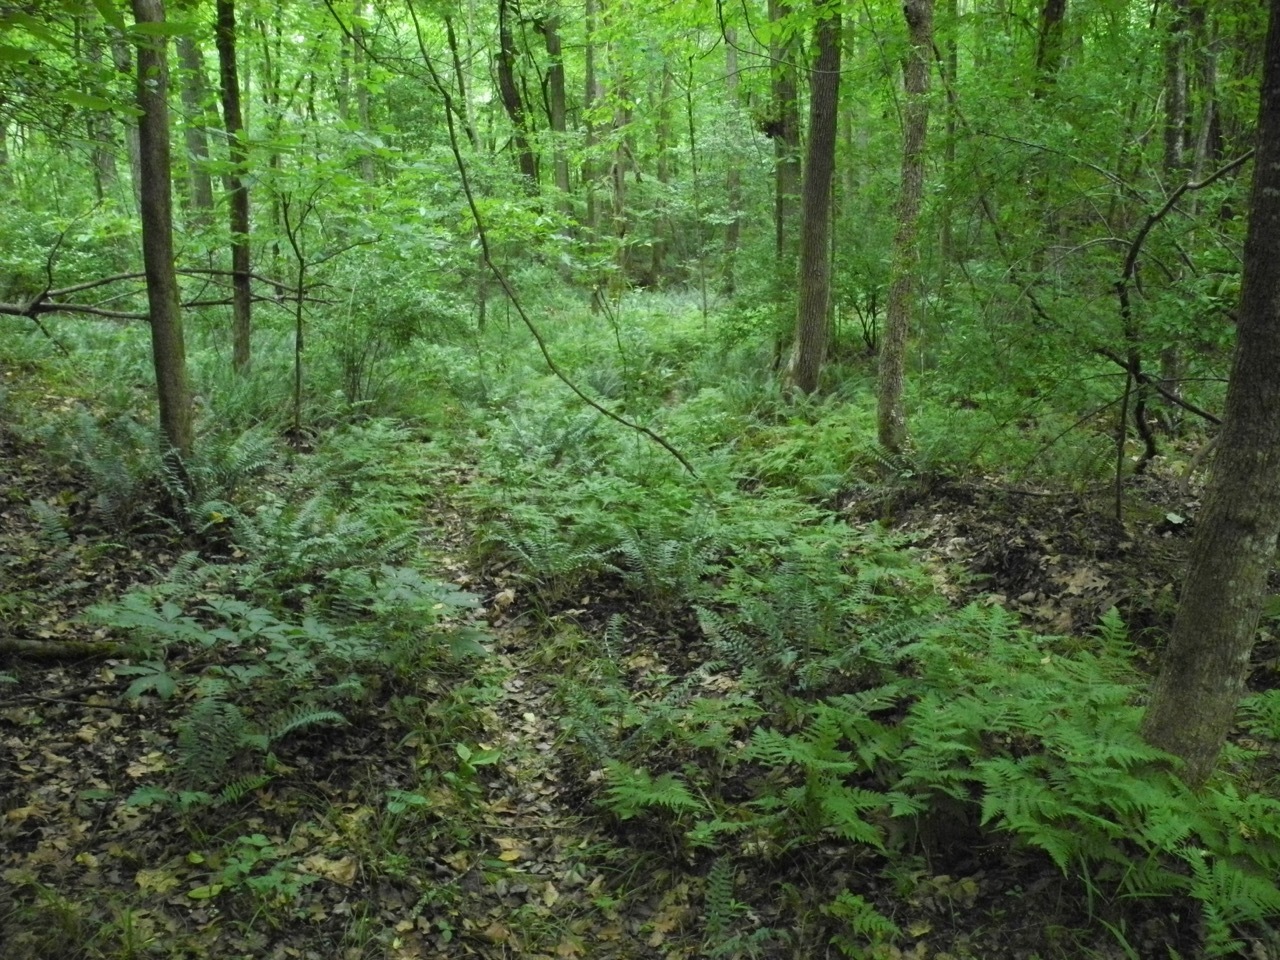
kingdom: Plantae
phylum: Tracheophyta
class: Polypodiopsida
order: Polypodiales
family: Thelypteridaceae
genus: Phegopteris
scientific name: Phegopteris hexagonoptera
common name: Broad beech fern
